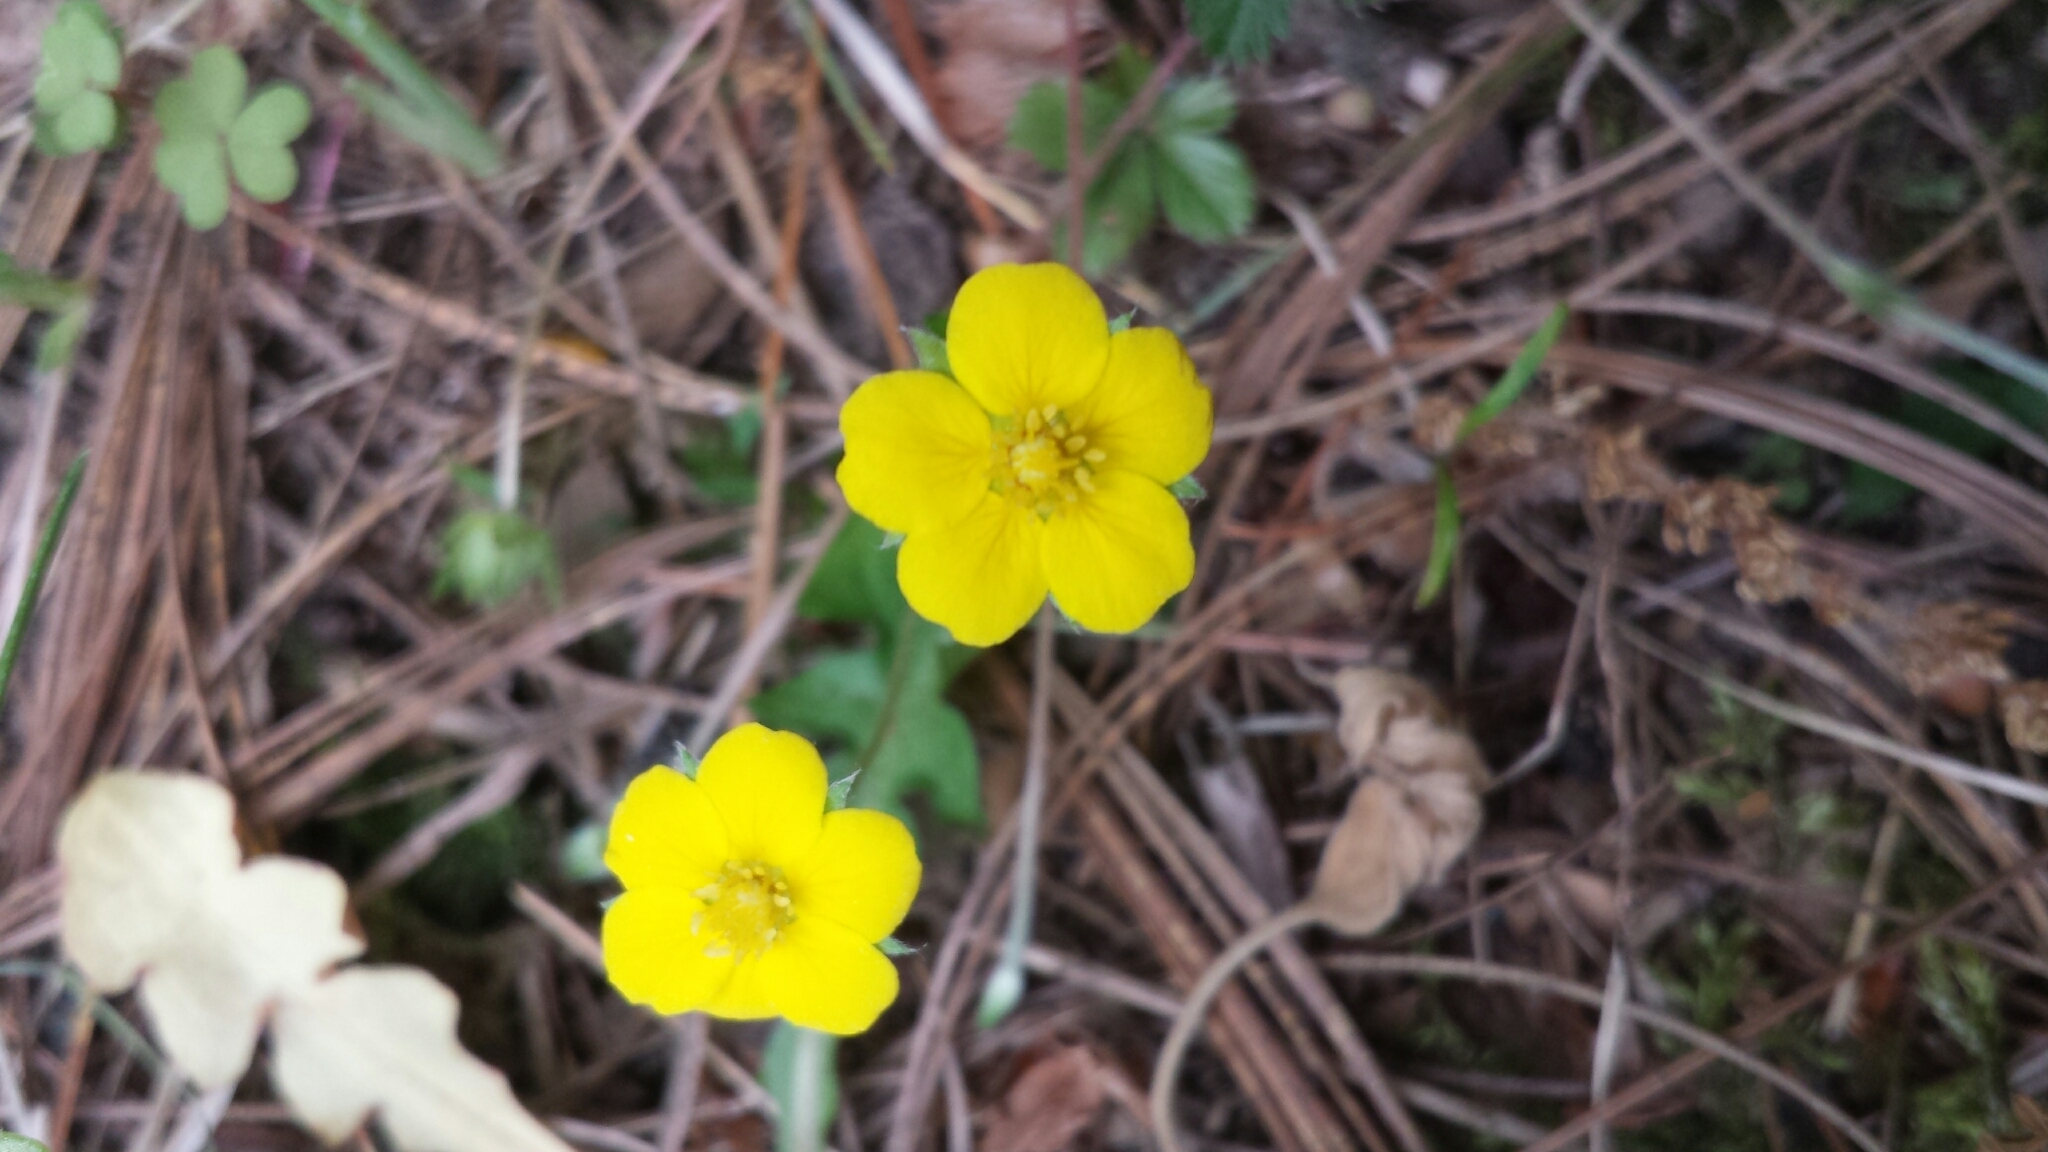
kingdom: Plantae
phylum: Tracheophyta
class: Magnoliopsida
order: Rosales
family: Rosaceae
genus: Potentilla
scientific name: Potentilla canadensis
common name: Canada cinquefoil
